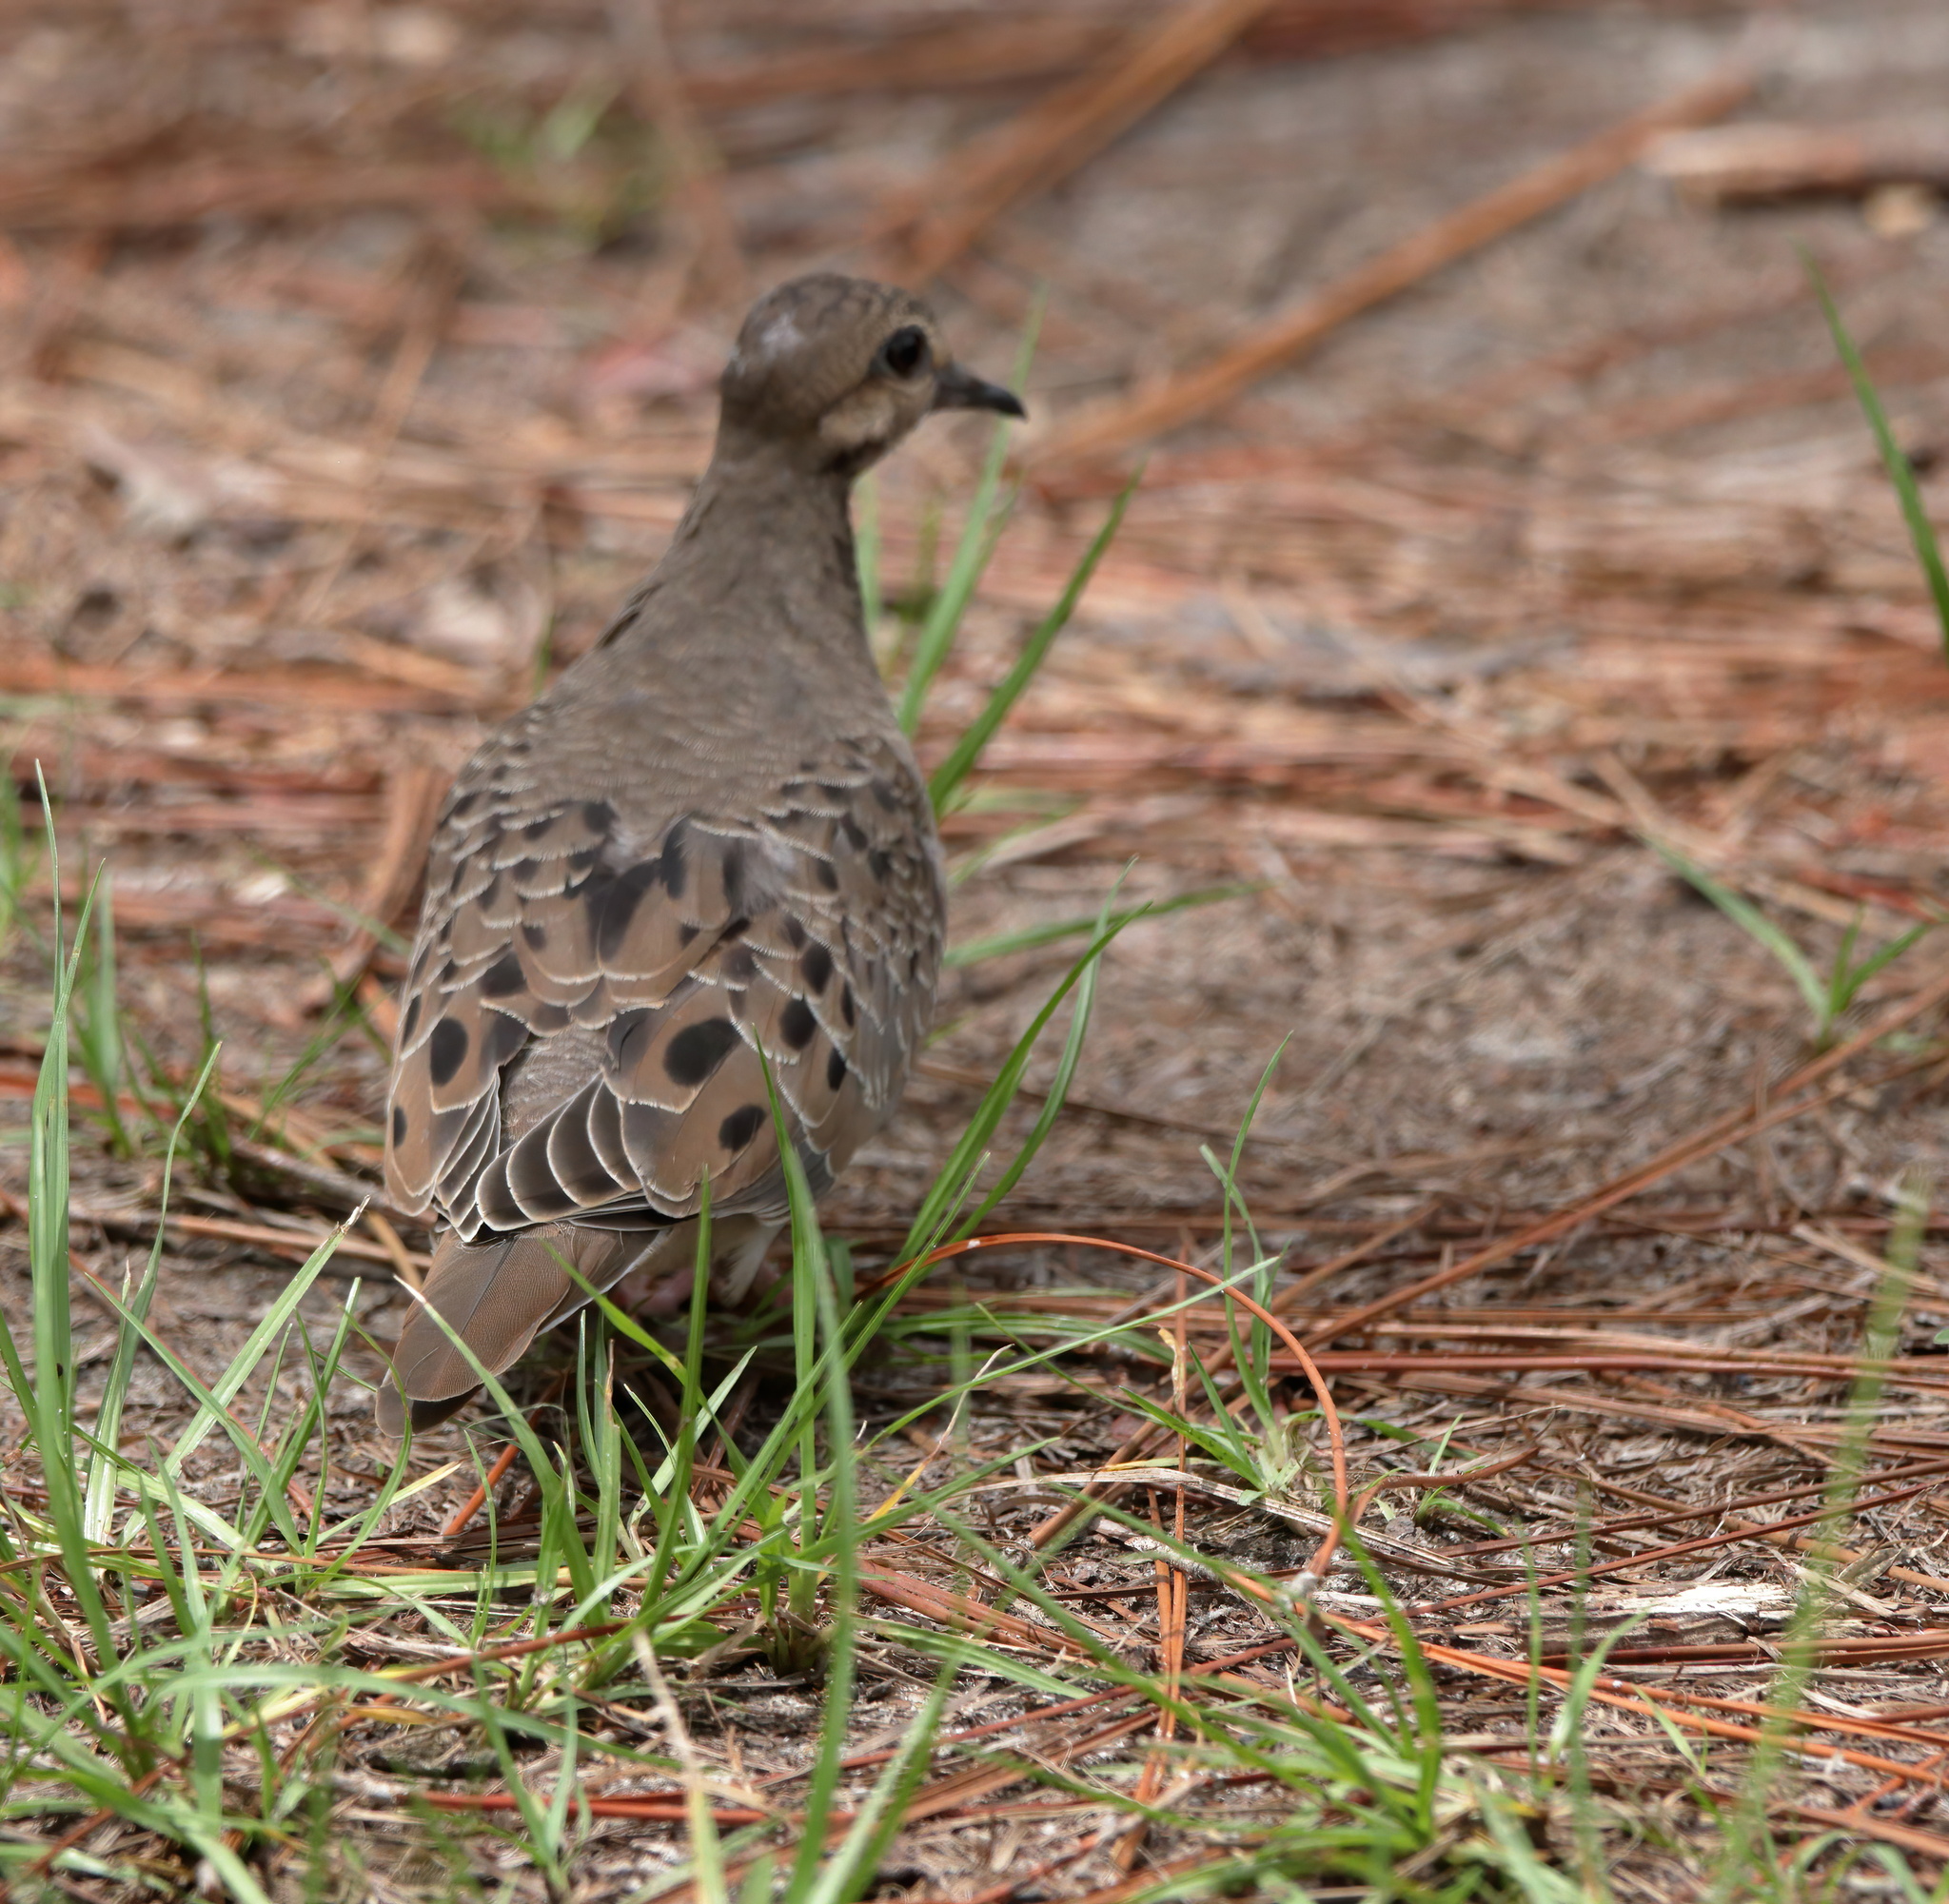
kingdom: Animalia
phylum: Chordata
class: Aves
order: Columbiformes
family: Columbidae
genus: Zenaida
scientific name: Zenaida macroura
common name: Mourning dove
